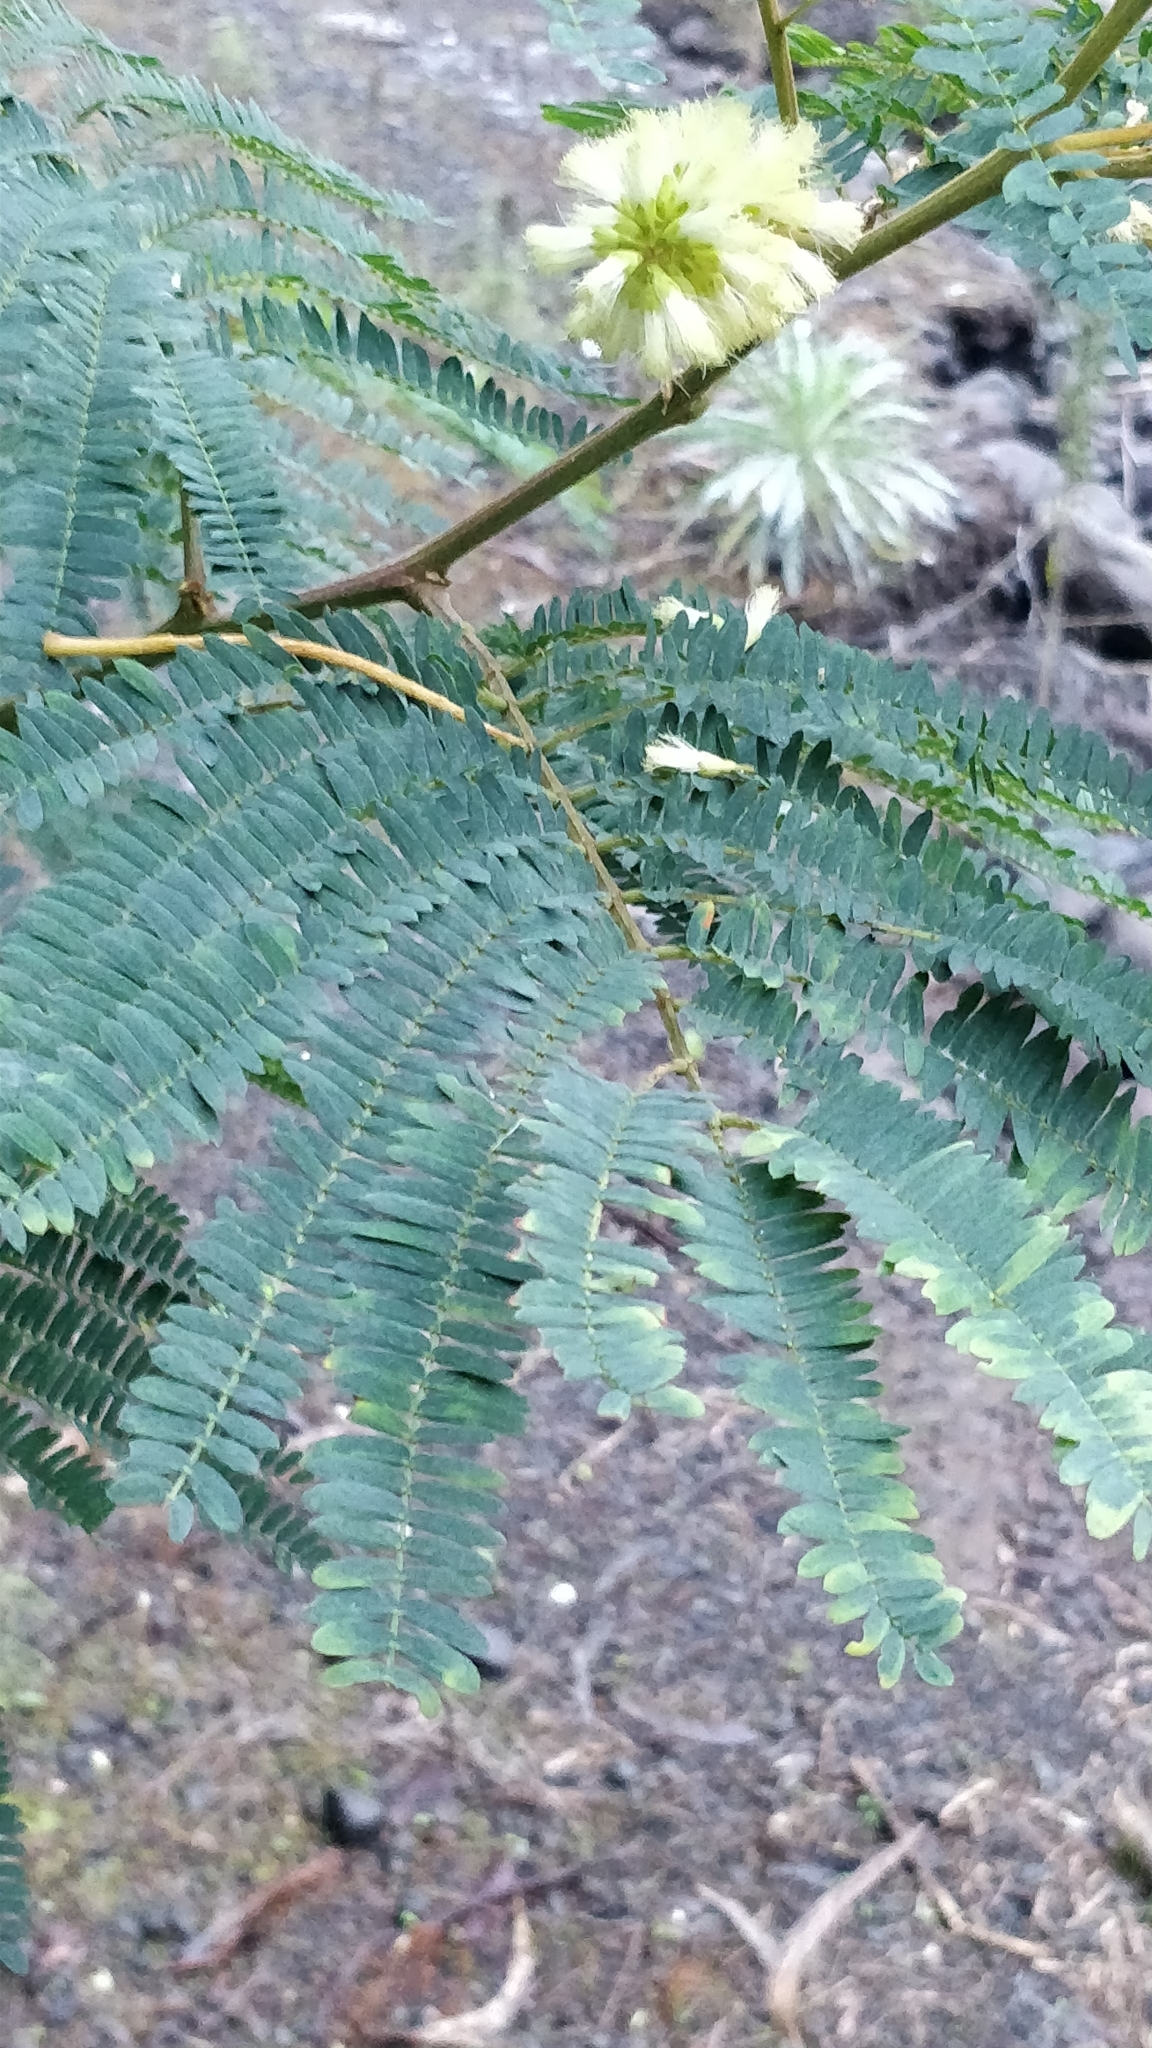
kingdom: Plantae
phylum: Tracheophyta
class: Magnoliopsida
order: Fabales
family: Fabaceae
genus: Paraserianthes
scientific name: Paraserianthes lophantha
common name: Plume albizia
